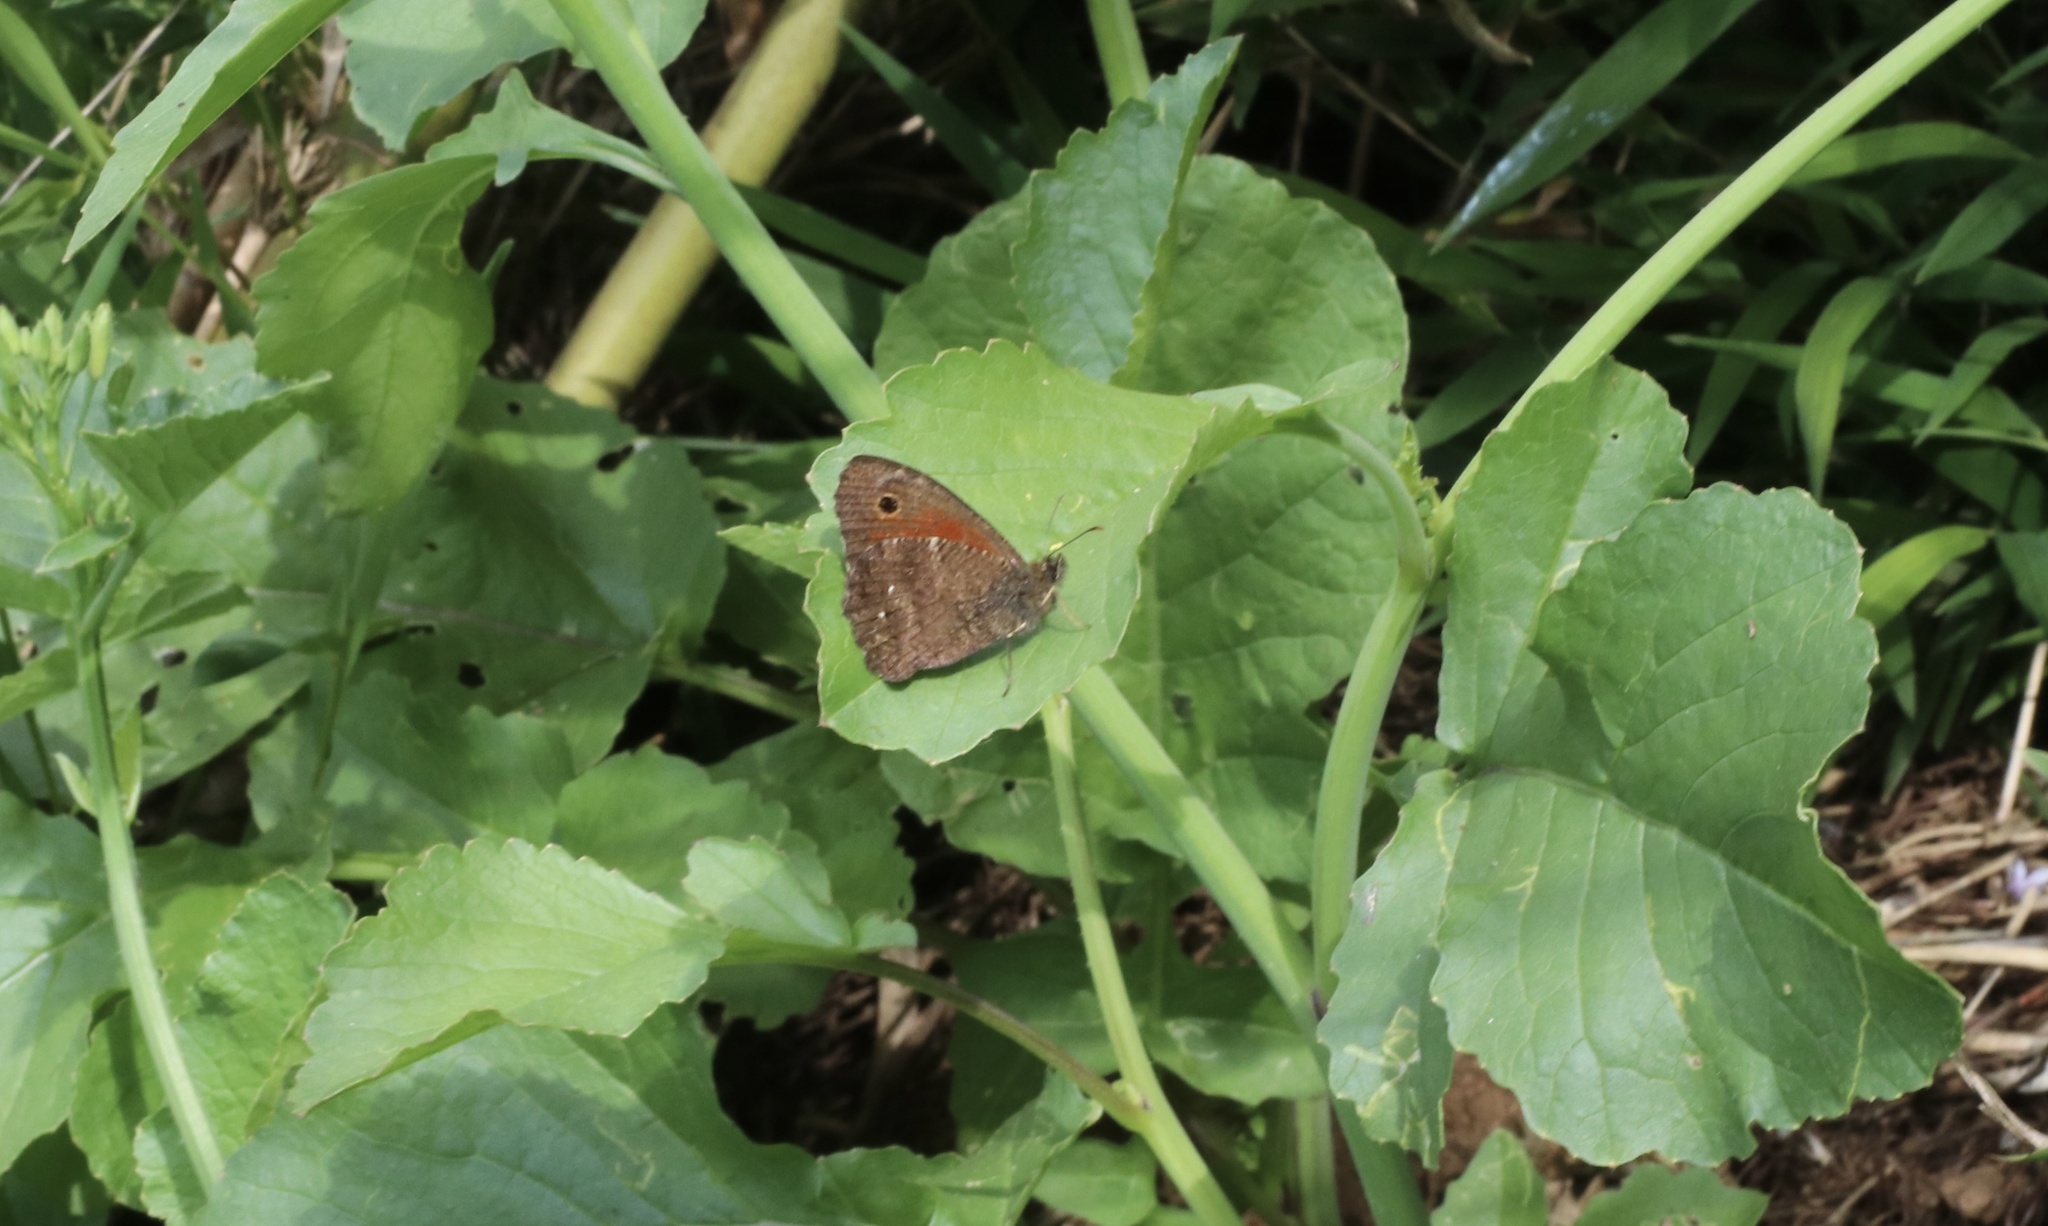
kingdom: Animalia
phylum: Arthropoda
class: Insecta
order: Lepidoptera
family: Nymphalidae
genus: Quilaphoetosus
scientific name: Quilaphoetosus monachus
